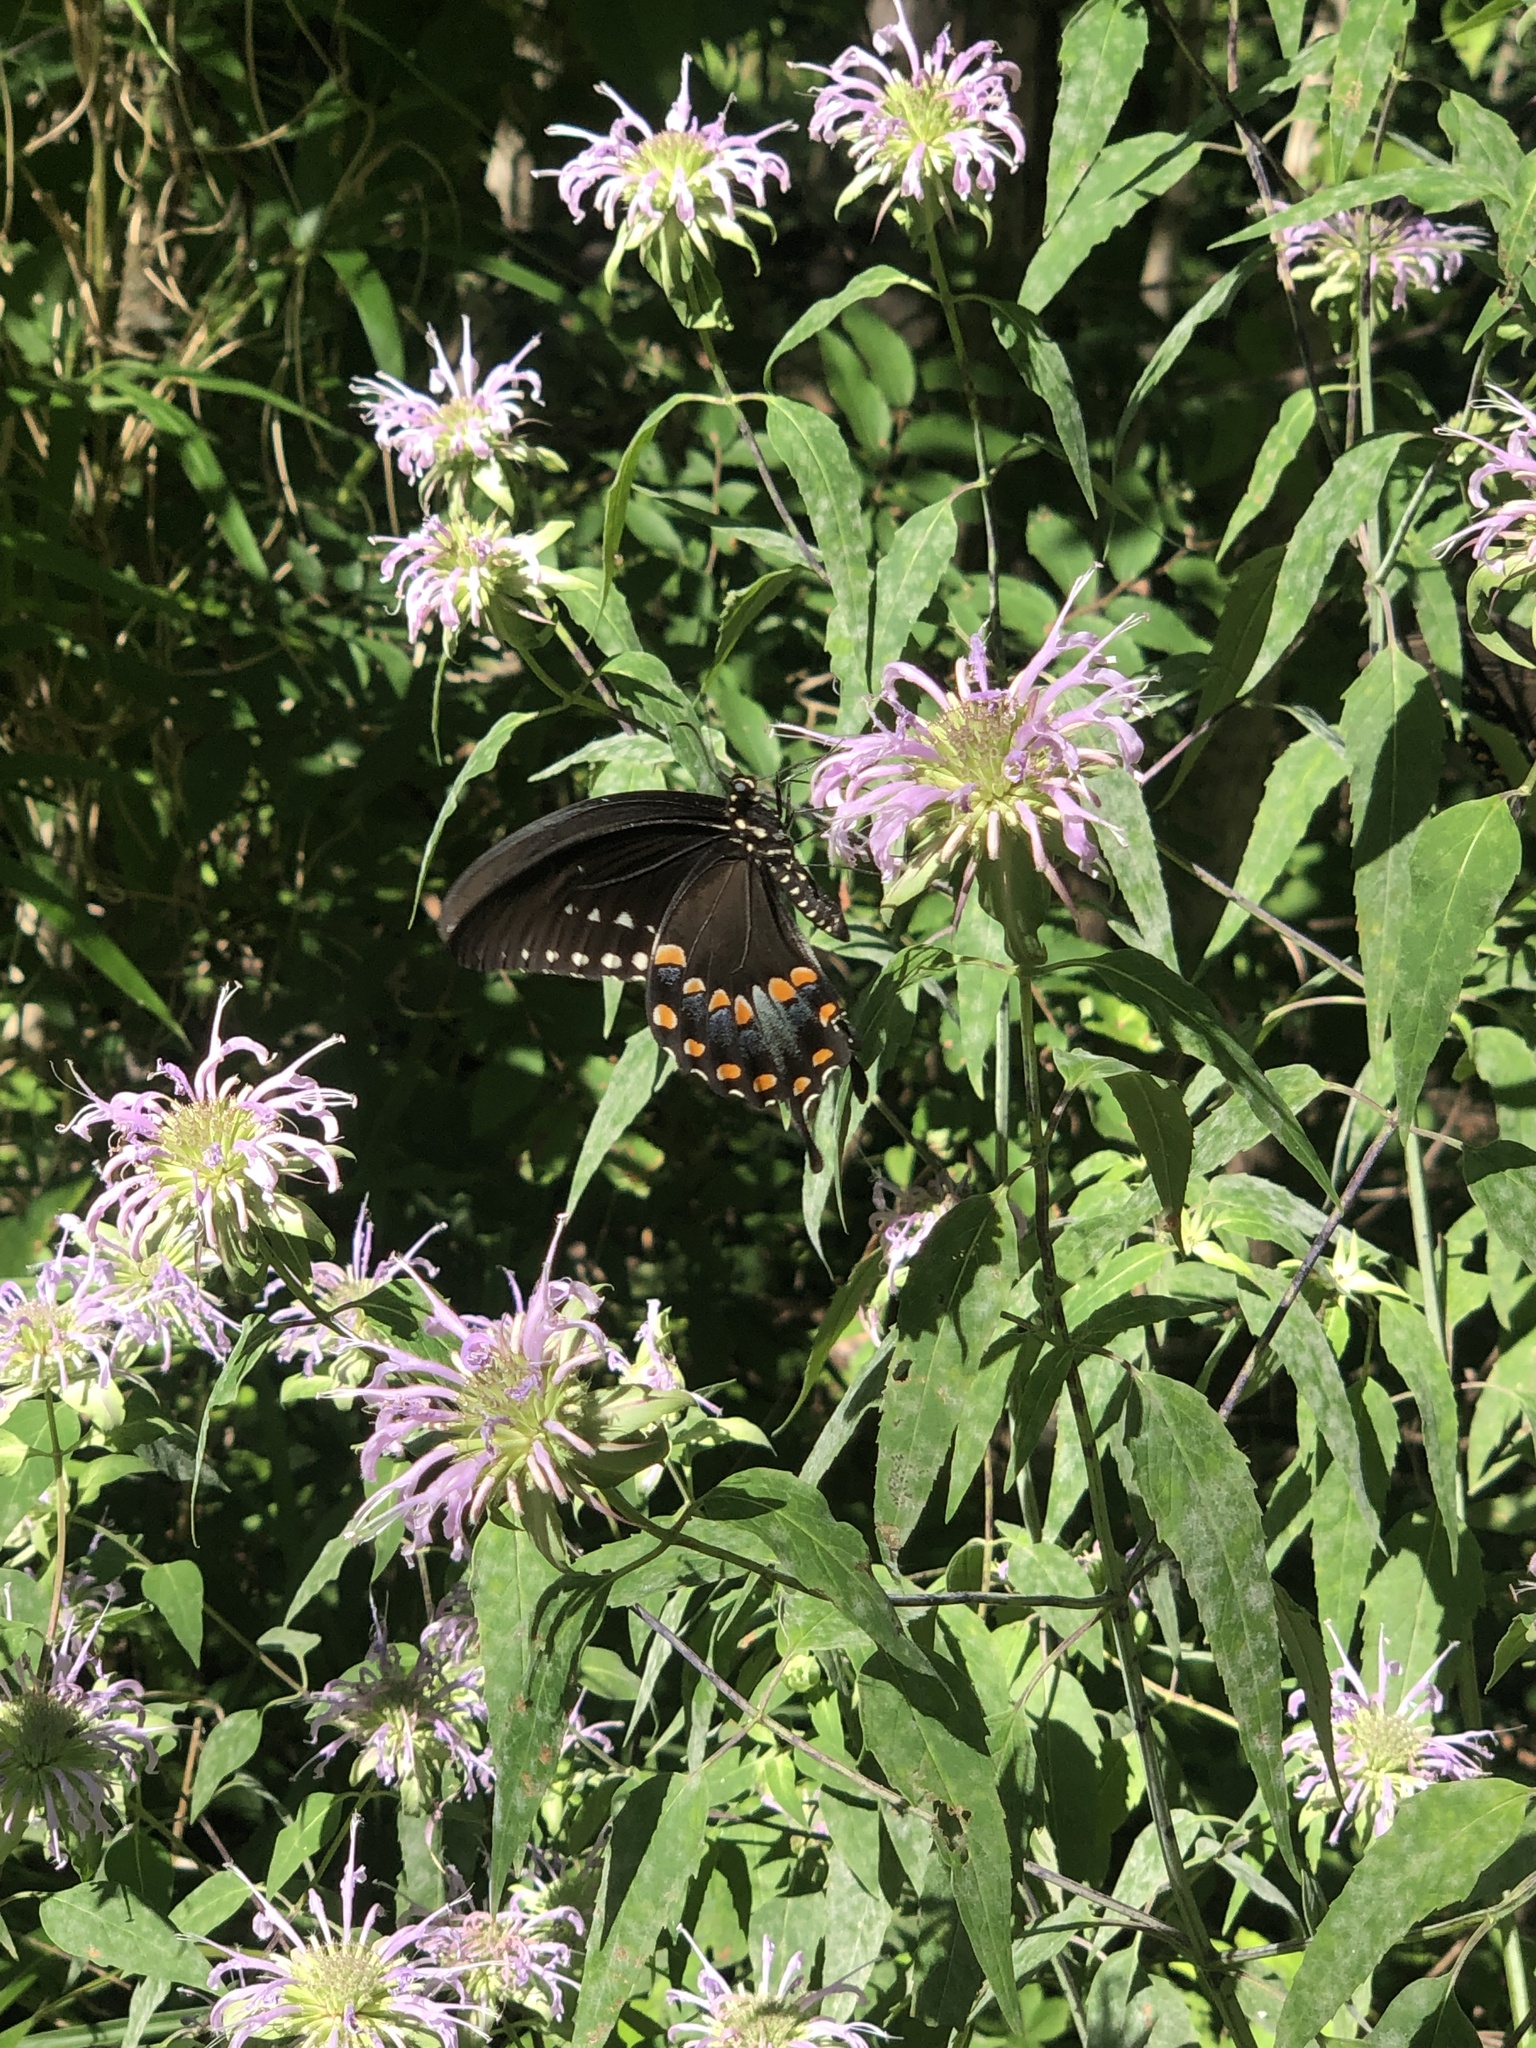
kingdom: Animalia
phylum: Arthropoda
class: Insecta
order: Lepidoptera
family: Papilionidae
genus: Papilio
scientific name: Papilio troilus
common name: Spicebush swallowtail
